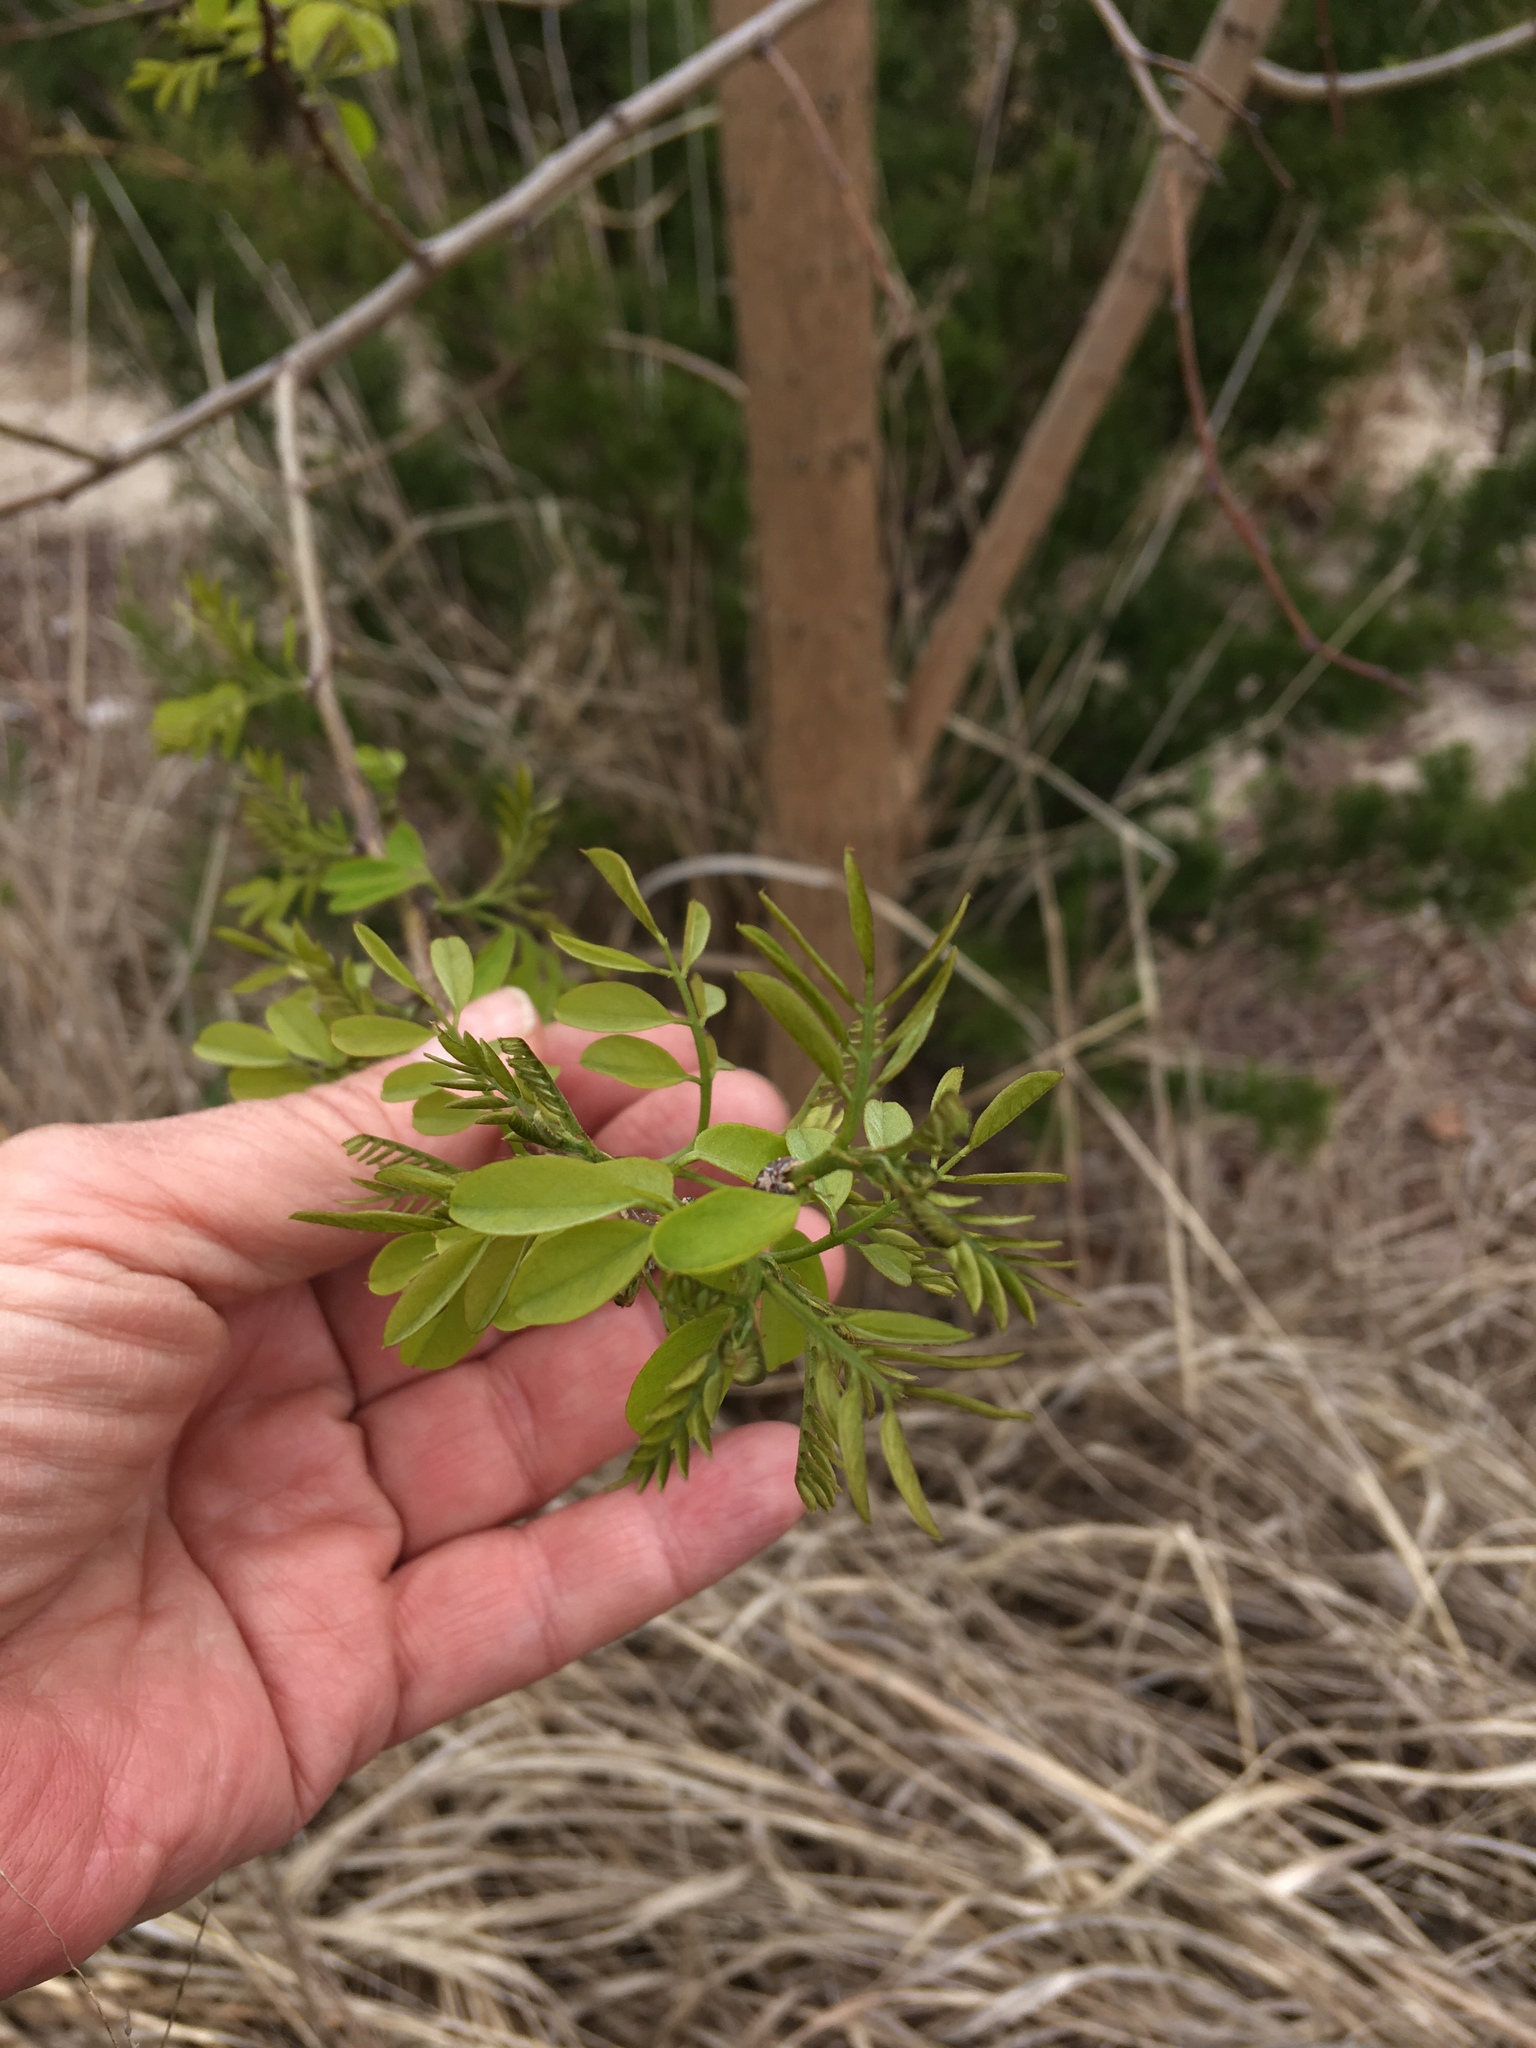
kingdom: Plantae
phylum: Tracheophyta
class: Magnoliopsida
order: Fabales
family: Fabaceae
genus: Robinia
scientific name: Robinia pseudoacacia
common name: Black locust
